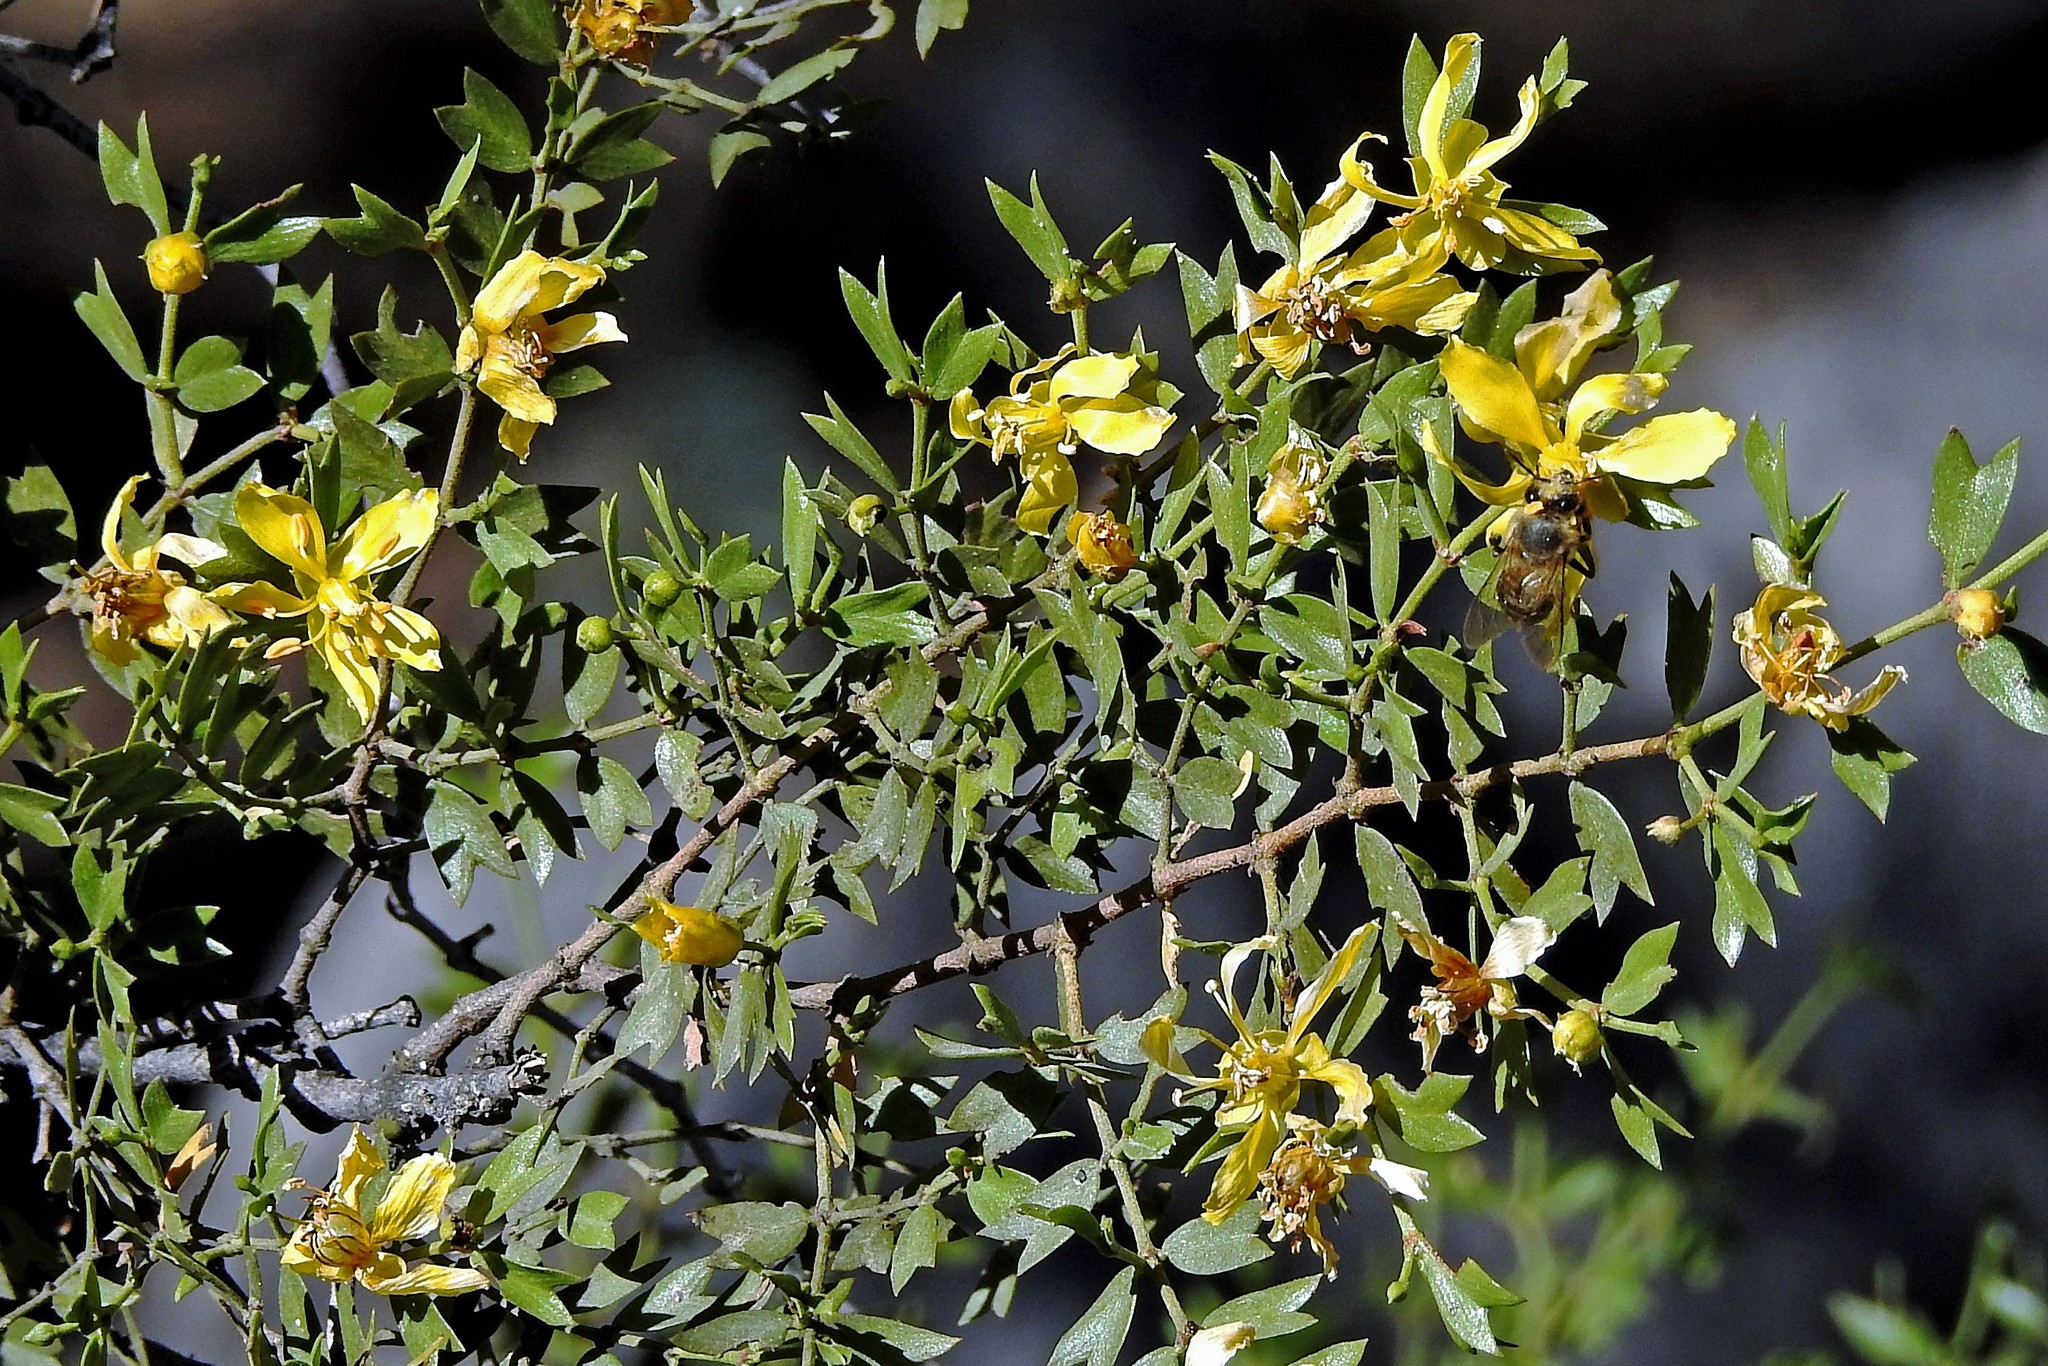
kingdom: Plantae
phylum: Tracheophyta
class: Magnoliopsida
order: Zygophyllales
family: Zygophyllaceae
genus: Larrea
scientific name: Larrea cuneifolia
